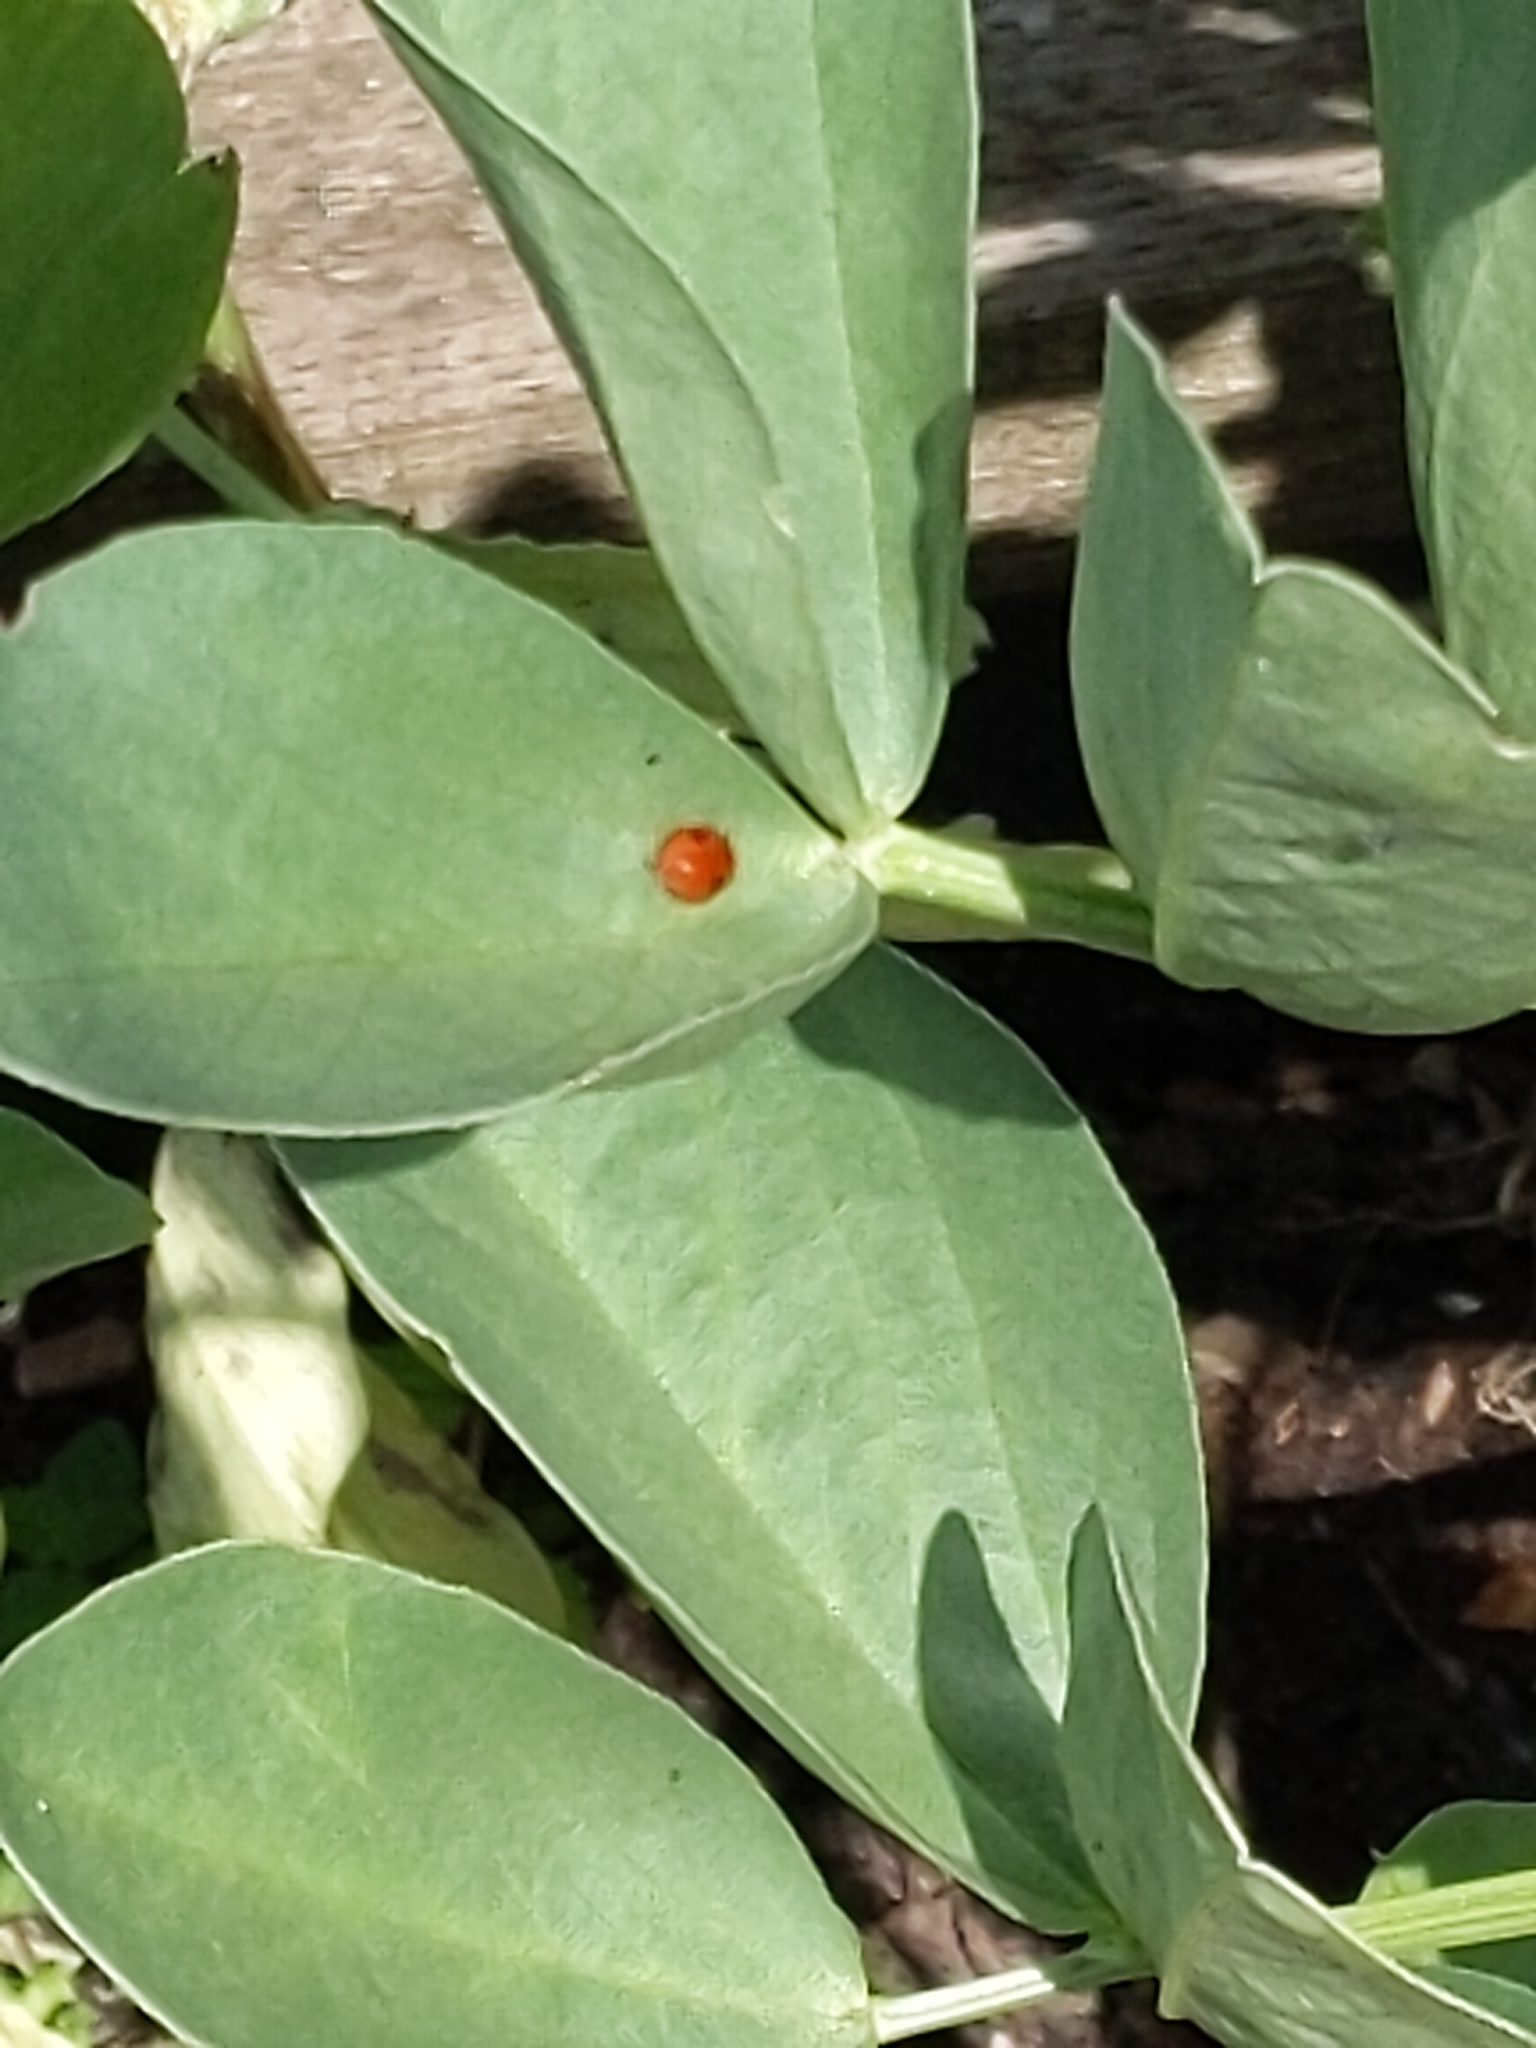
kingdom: Animalia
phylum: Arthropoda
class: Insecta
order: Coleoptera
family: Coccinellidae
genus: Adalia
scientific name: Adalia bipunctata
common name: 2-spot ladybird
